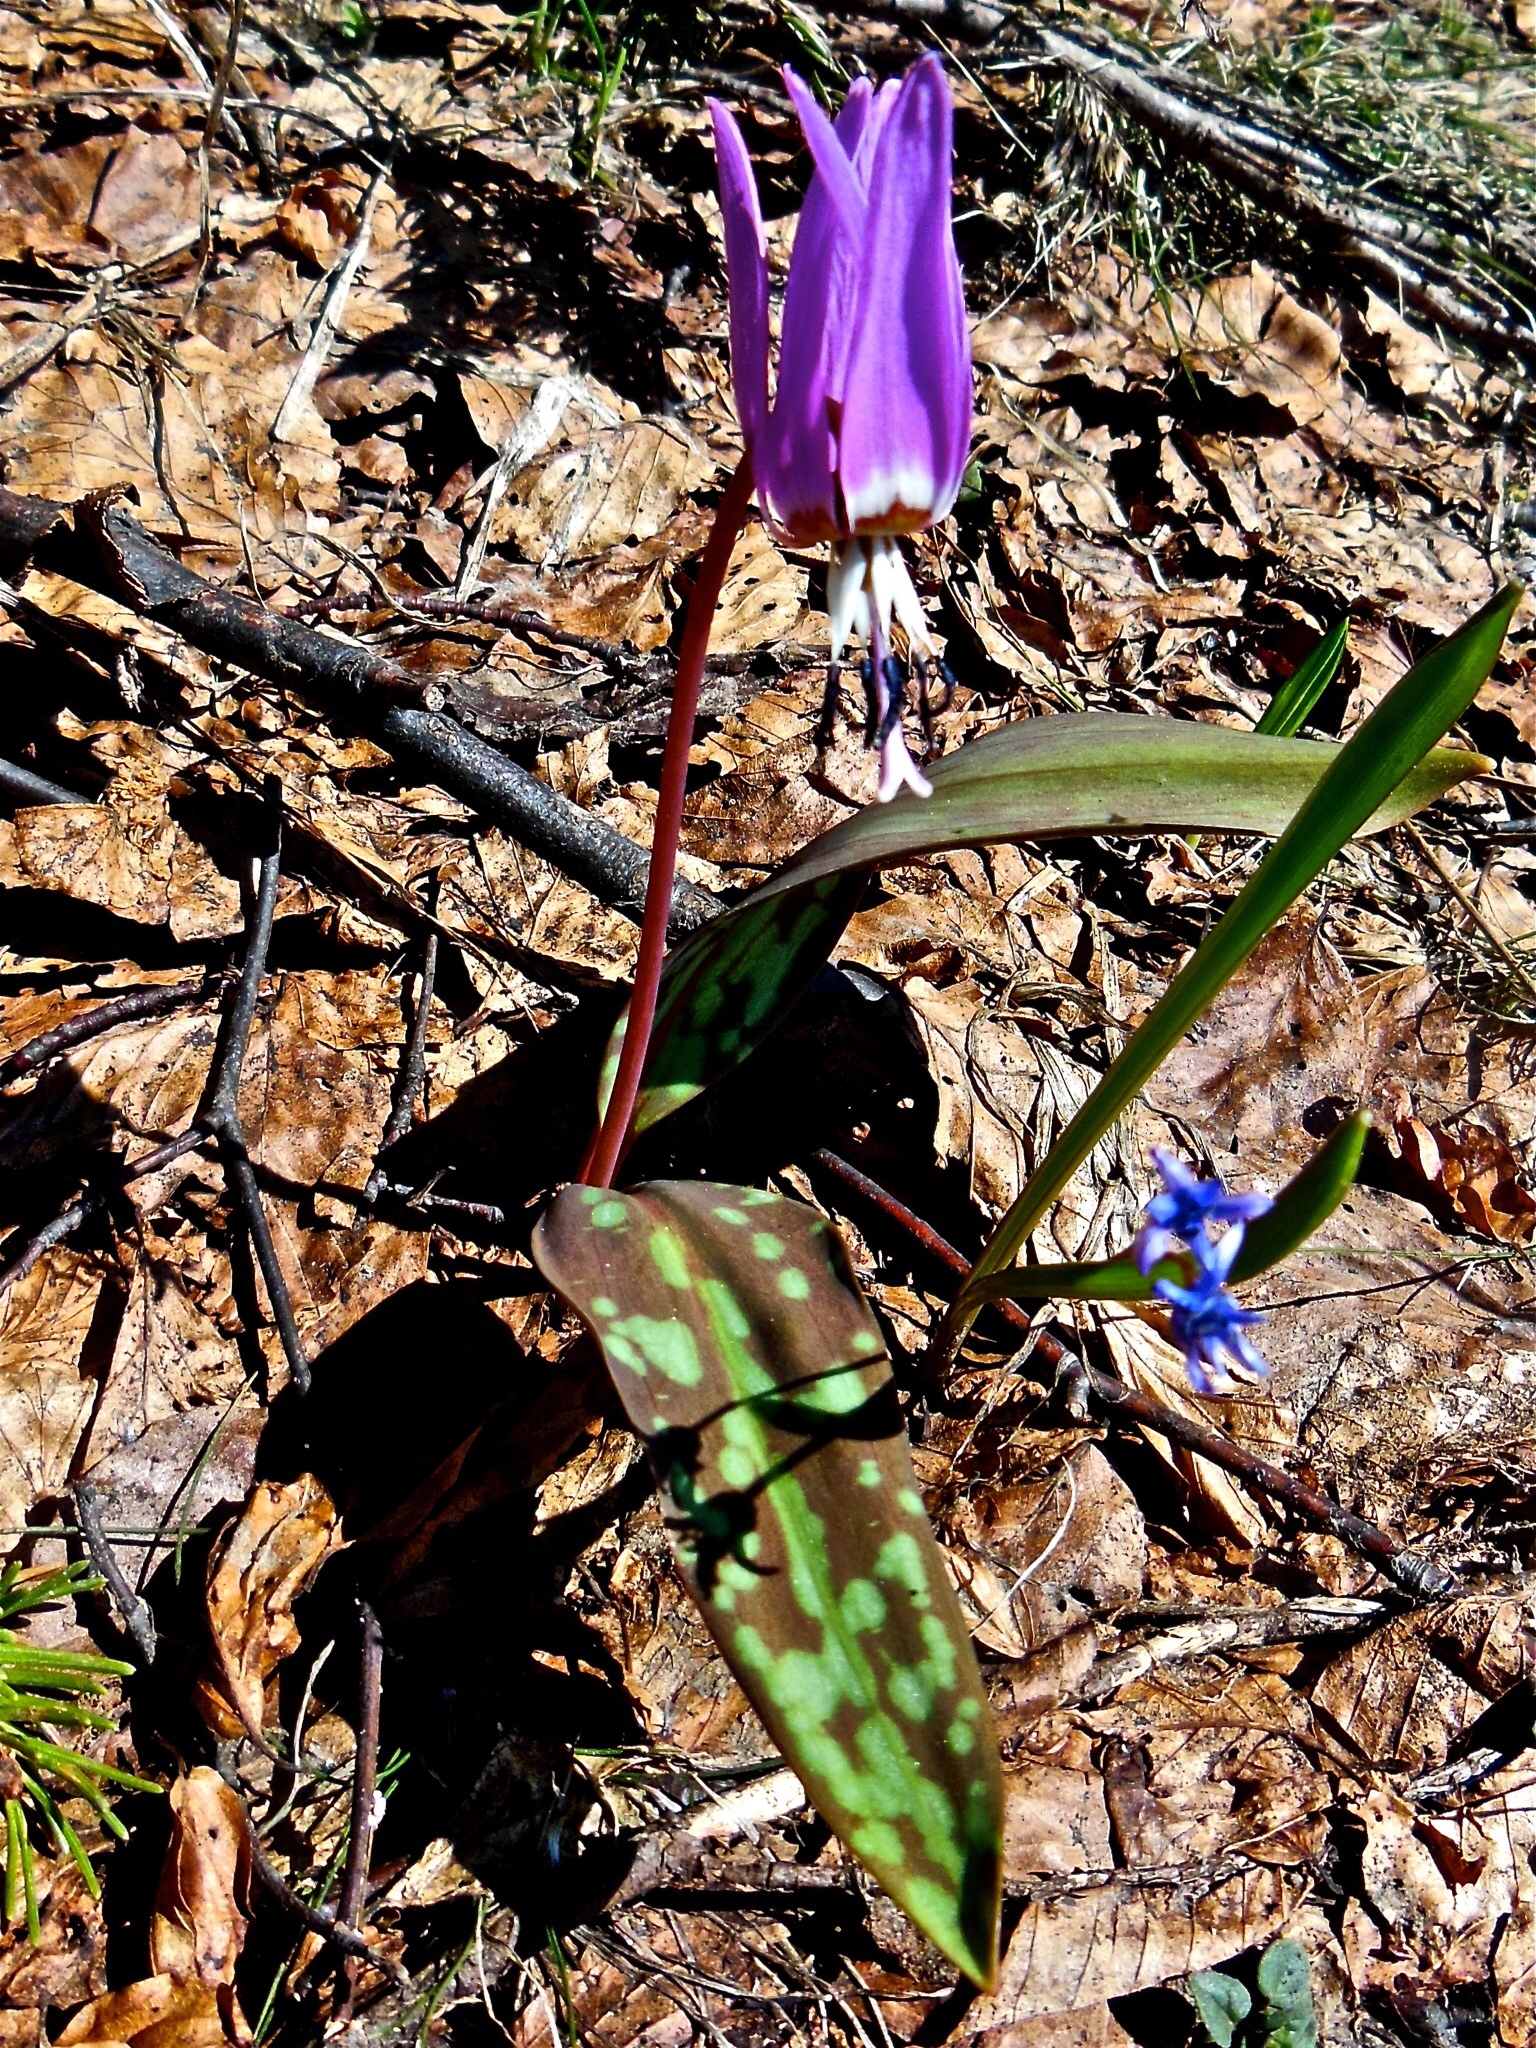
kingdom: Plantae
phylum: Tracheophyta
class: Liliopsida
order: Liliales
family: Liliaceae
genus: Erythronium
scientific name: Erythronium dens-canis
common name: Dog's-tooth-violet
